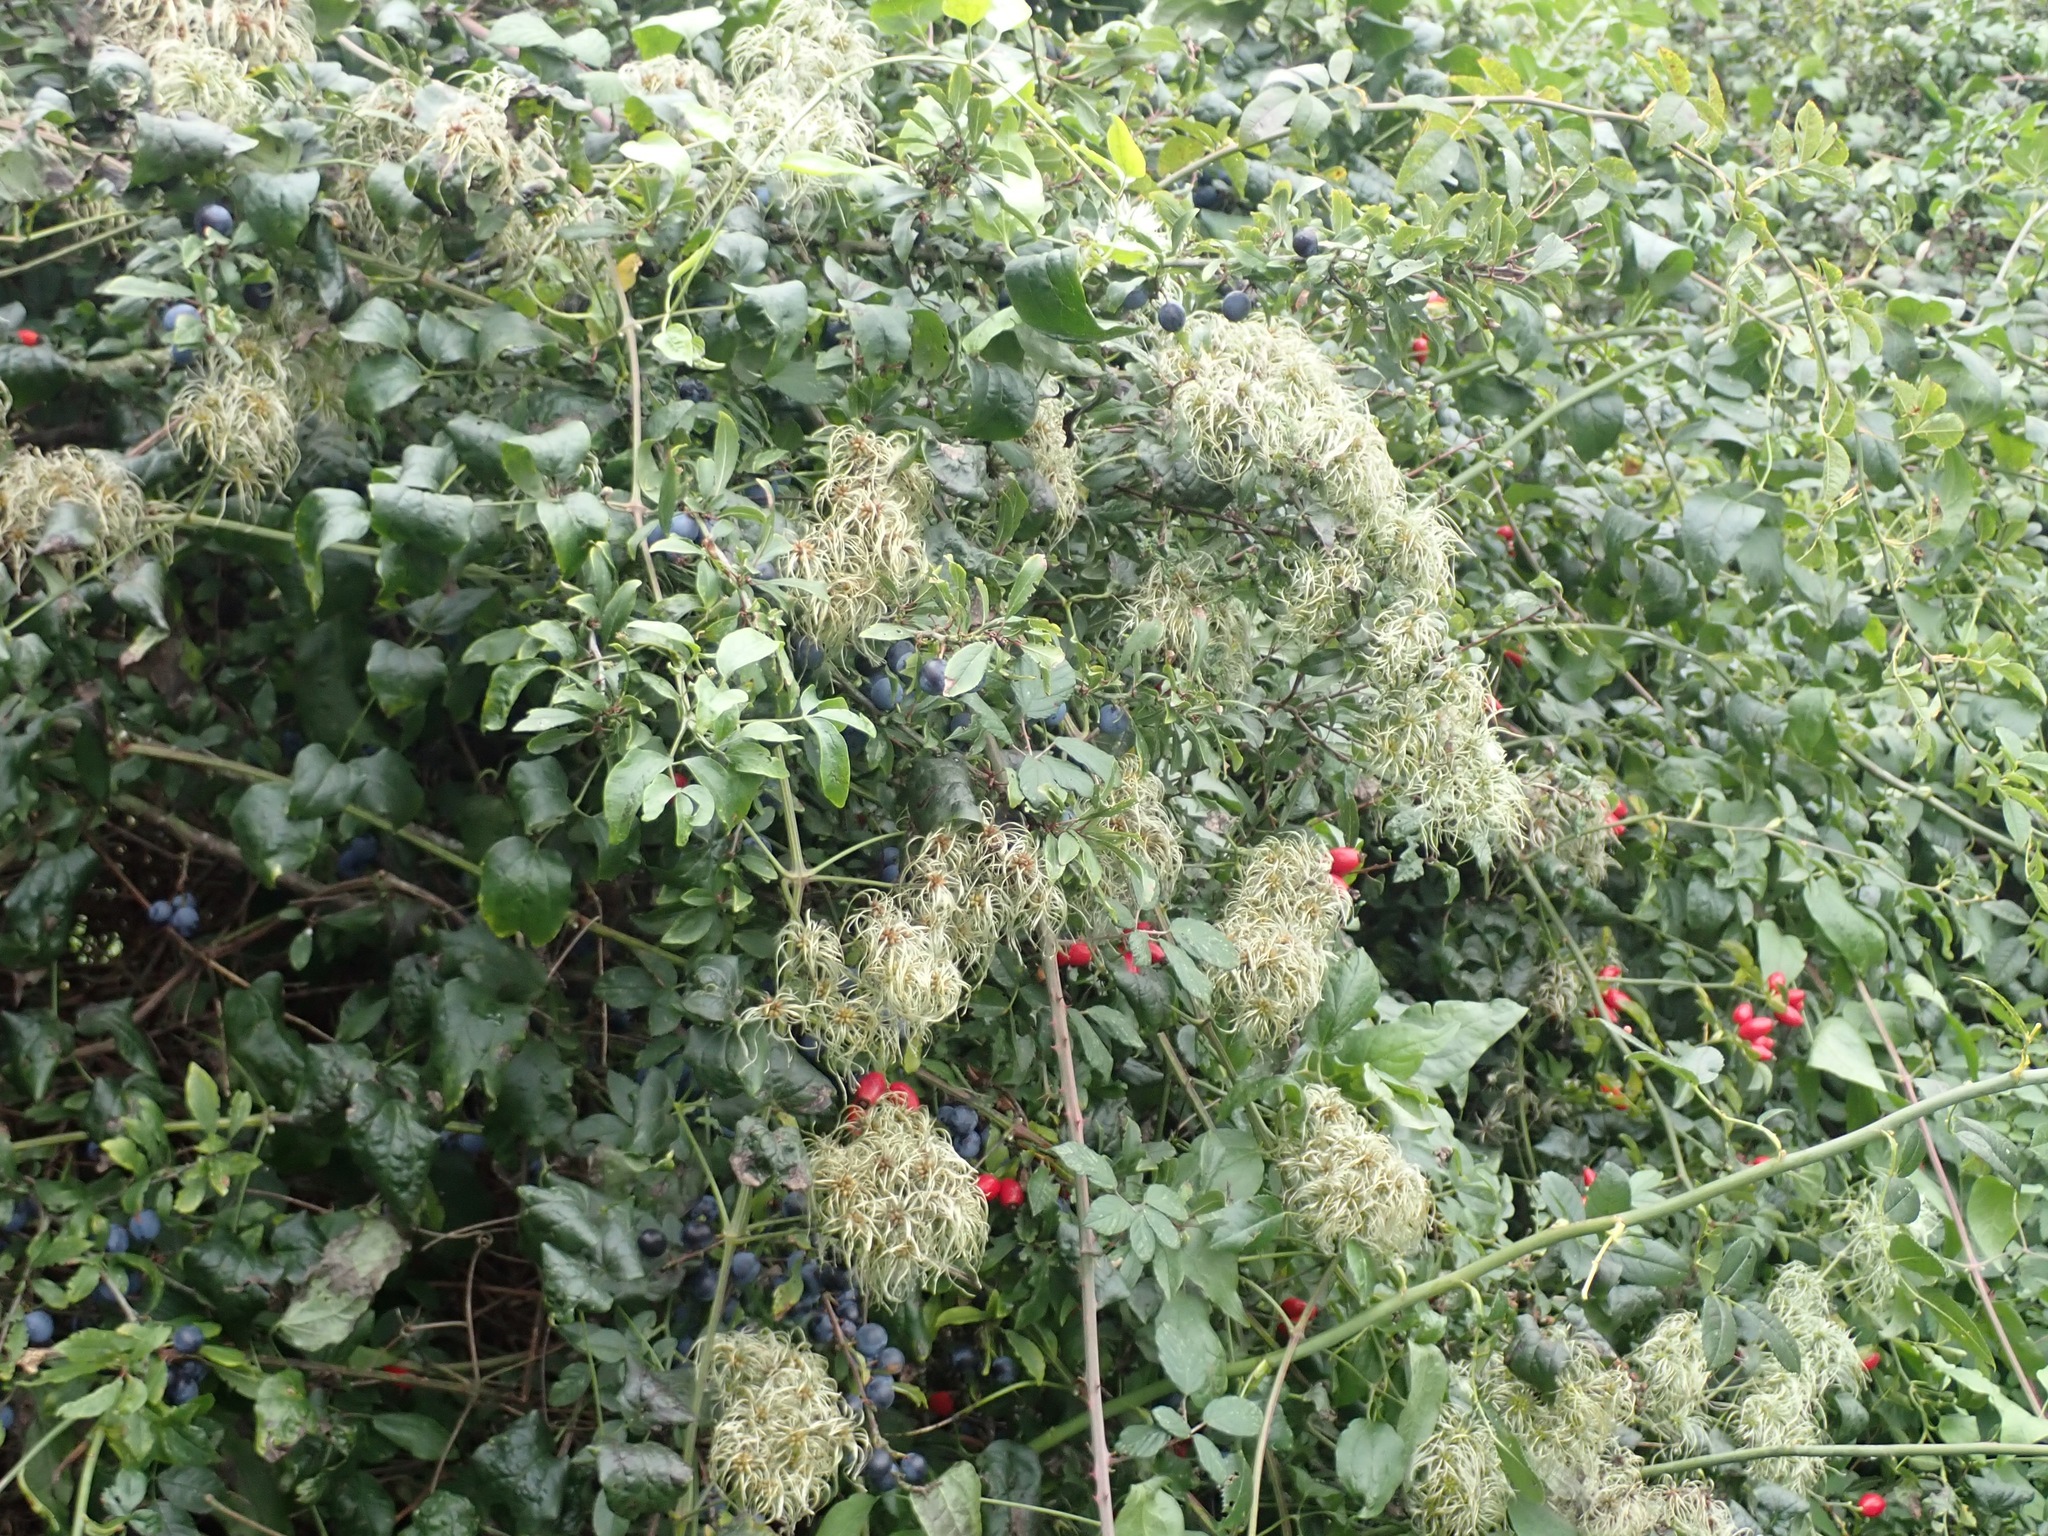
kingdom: Plantae
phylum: Tracheophyta
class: Magnoliopsida
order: Ranunculales
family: Ranunculaceae
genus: Clematis
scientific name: Clematis vitalba
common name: Evergreen clematis
